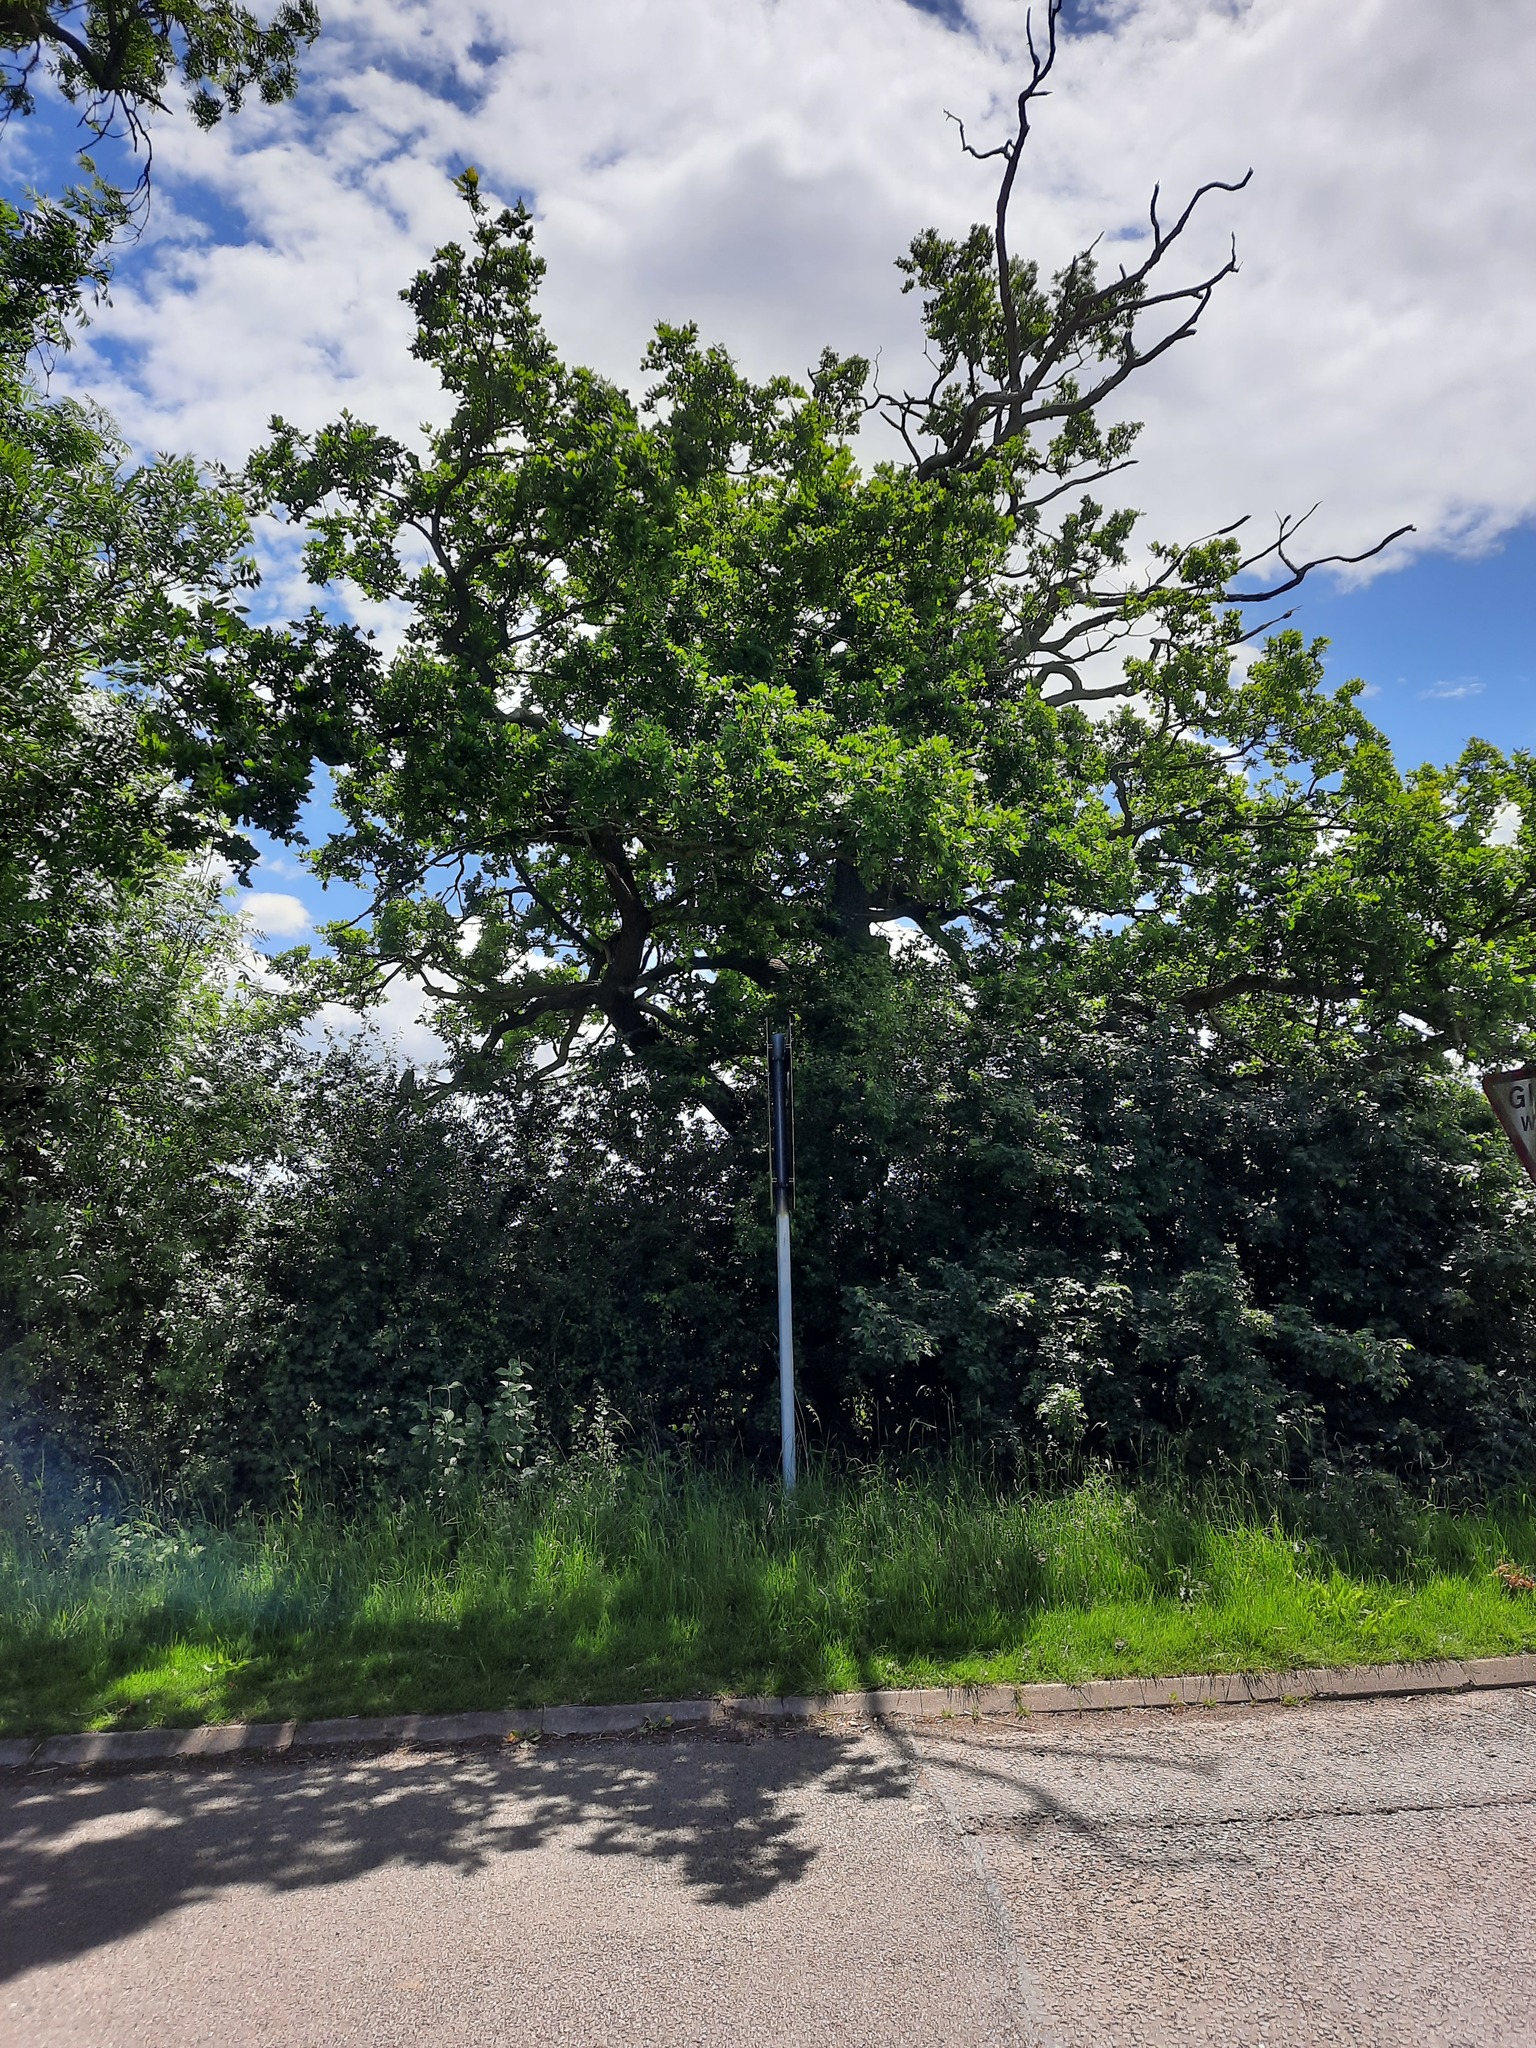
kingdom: Plantae
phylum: Tracheophyta
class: Magnoliopsida
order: Lamiales
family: Oleaceae
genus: Fraxinus
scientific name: Fraxinus excelsior
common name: European ash
